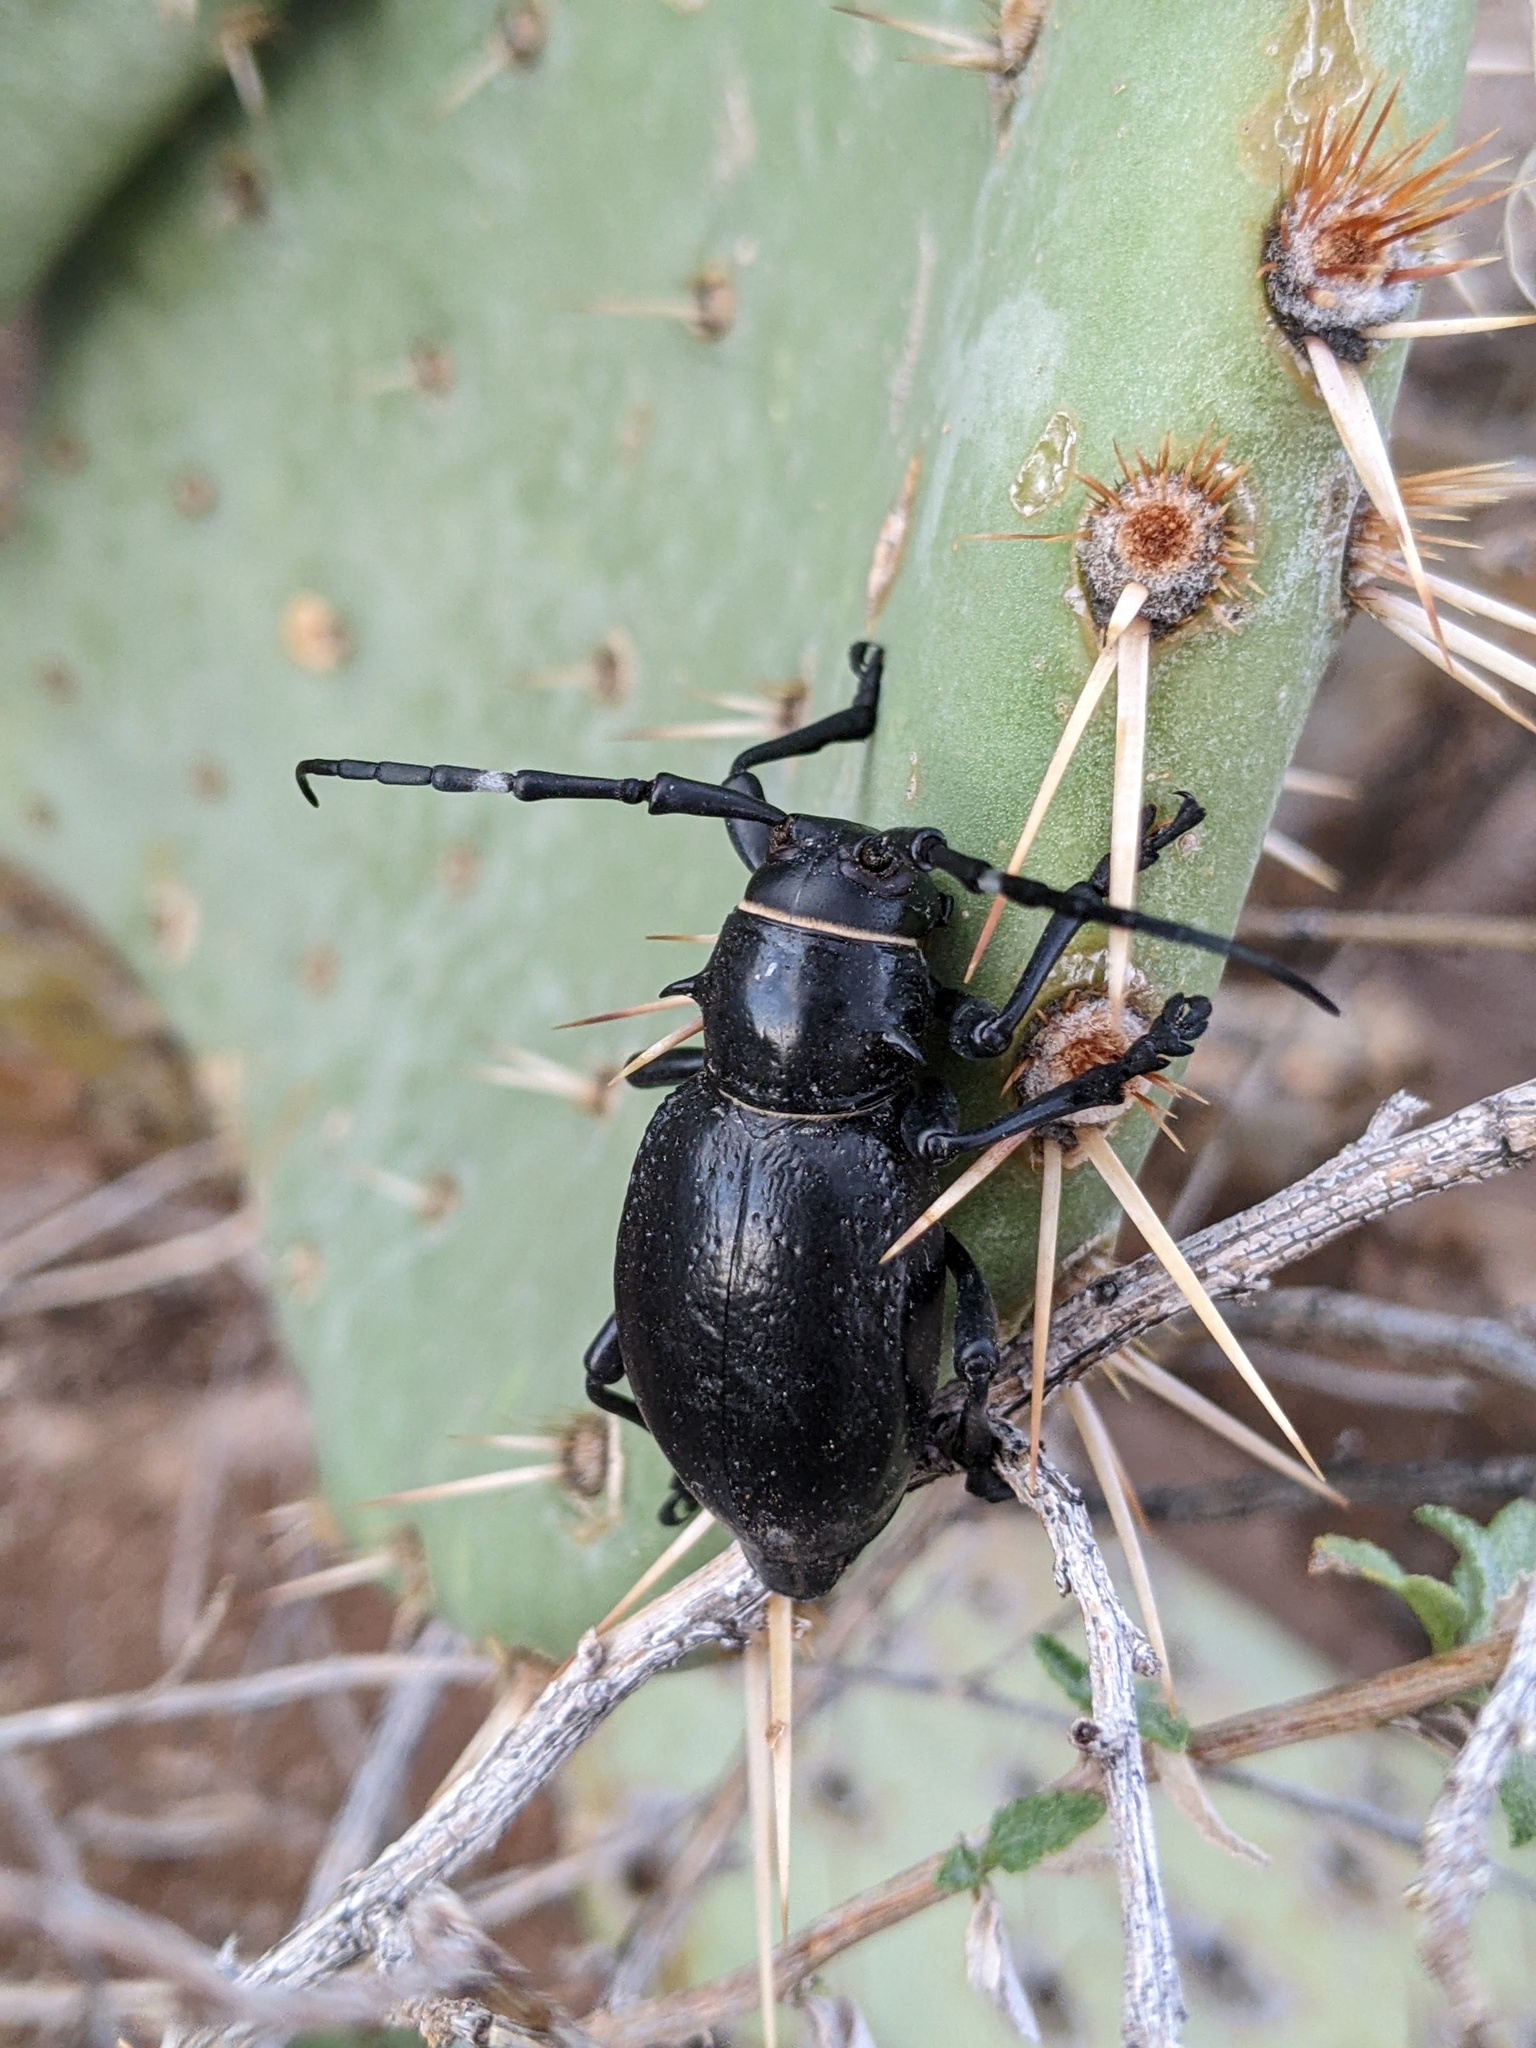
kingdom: Animalia
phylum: Arthropoda
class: Insecta
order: Coleoptera
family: Cerambycidae
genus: Moneilema
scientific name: Moneilema gigas
